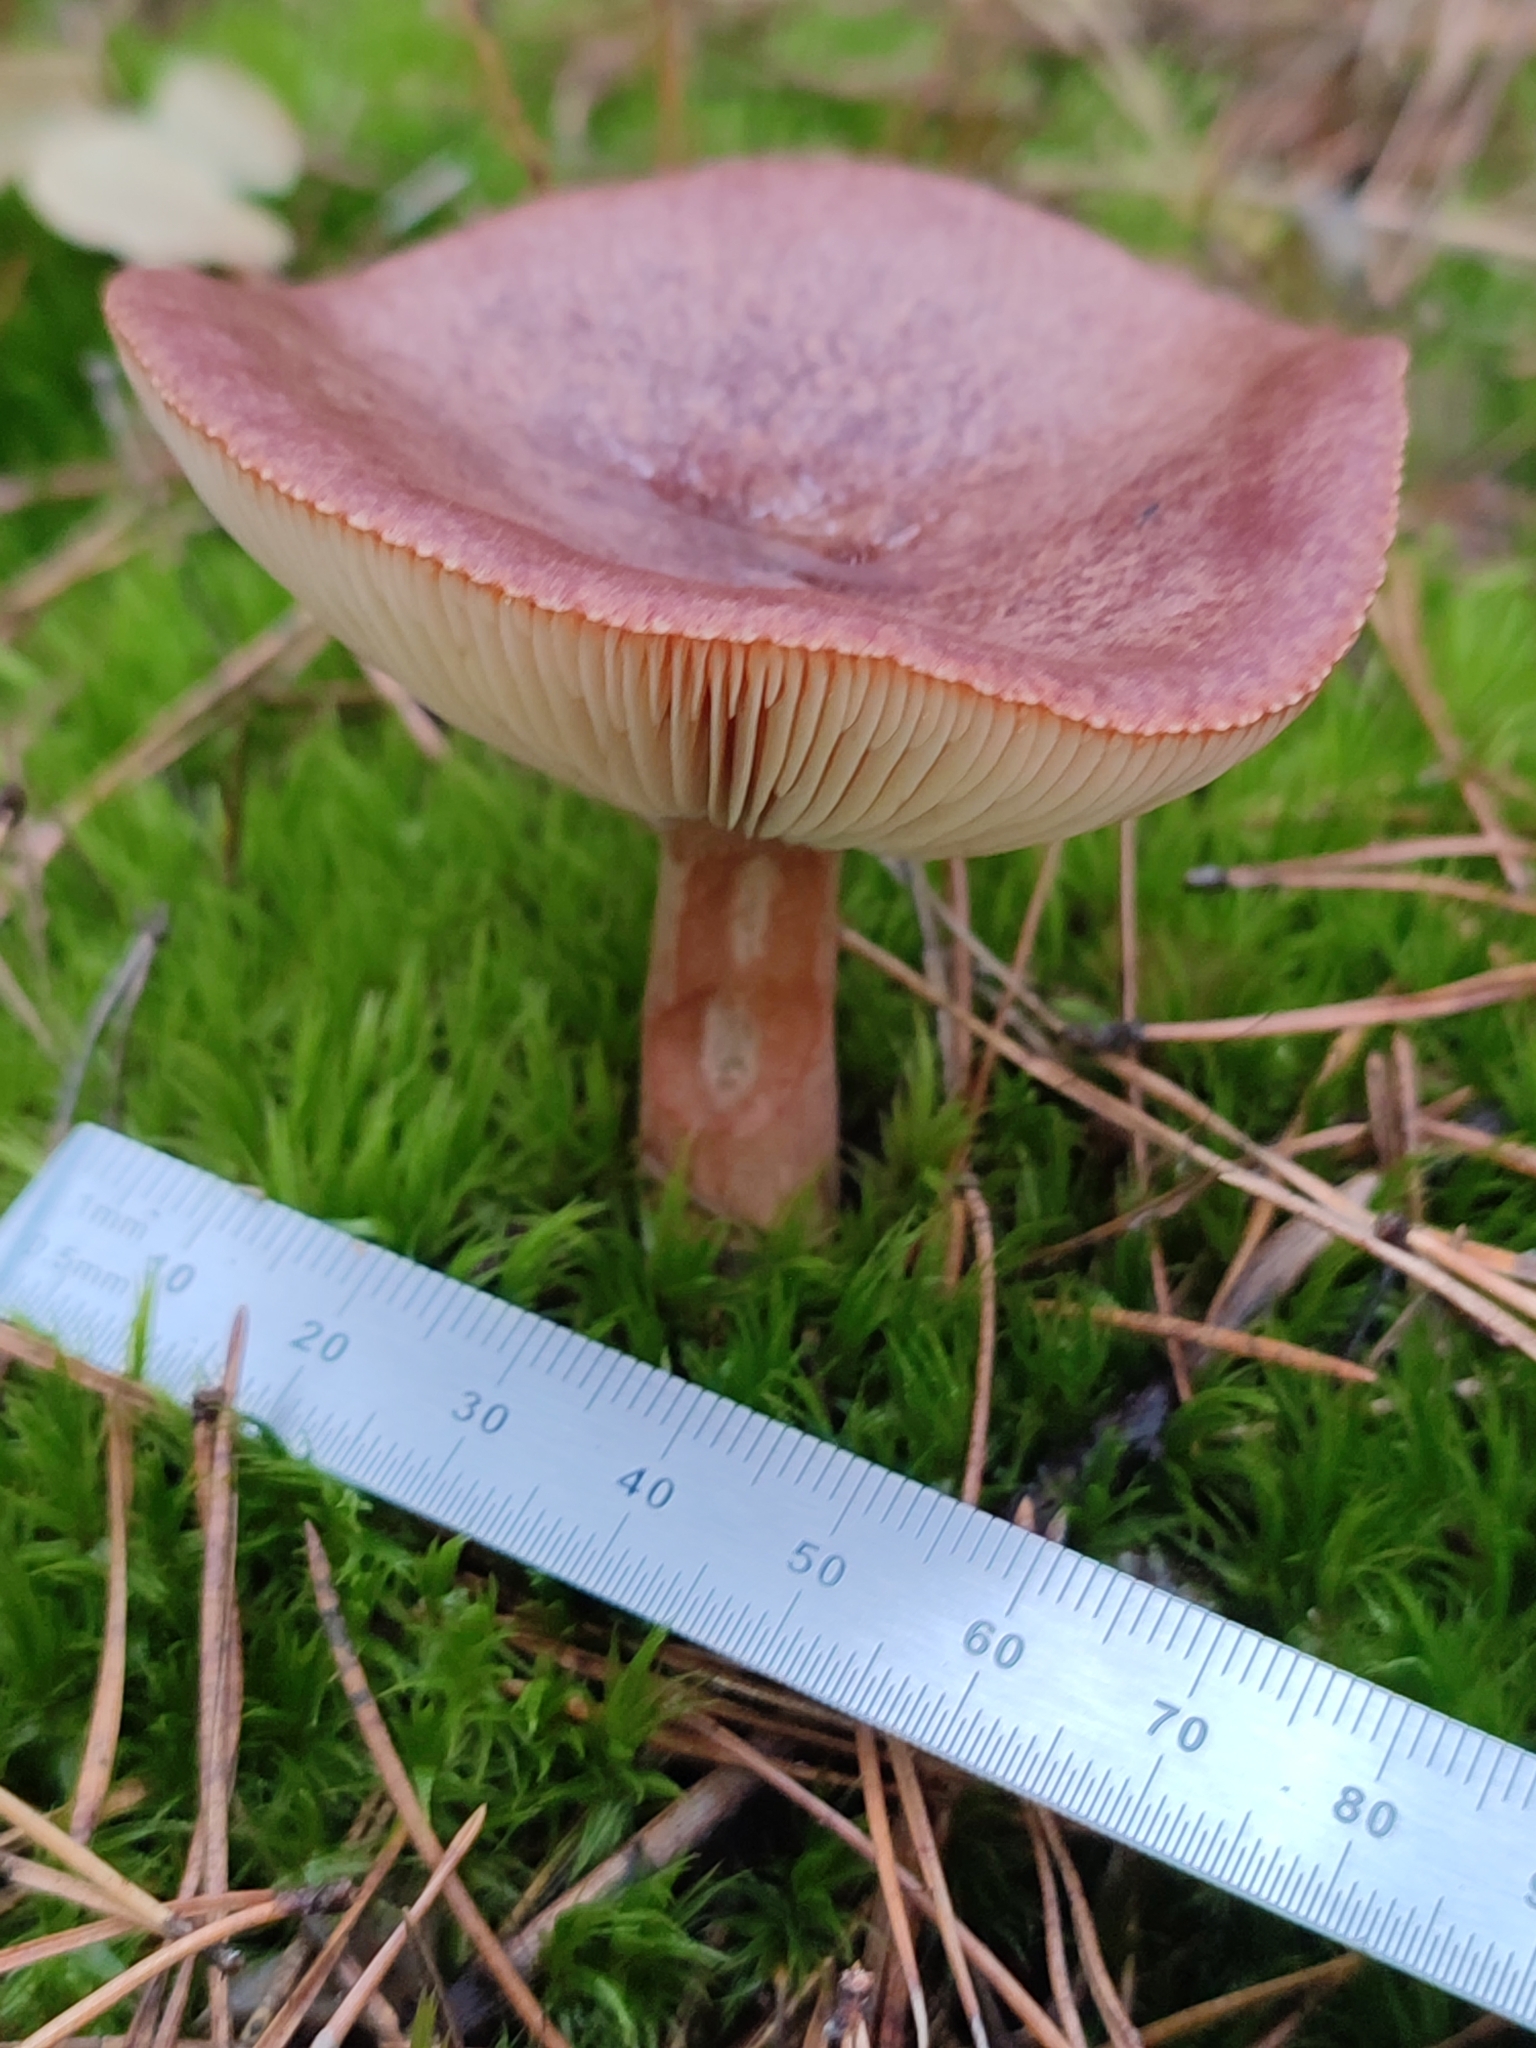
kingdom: Fungi
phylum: Basidiomycota
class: Agaricomycetes
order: Russulales
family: Russulaceae
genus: Lactarius
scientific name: Lactarius rufus
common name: Rufous milk-cap
